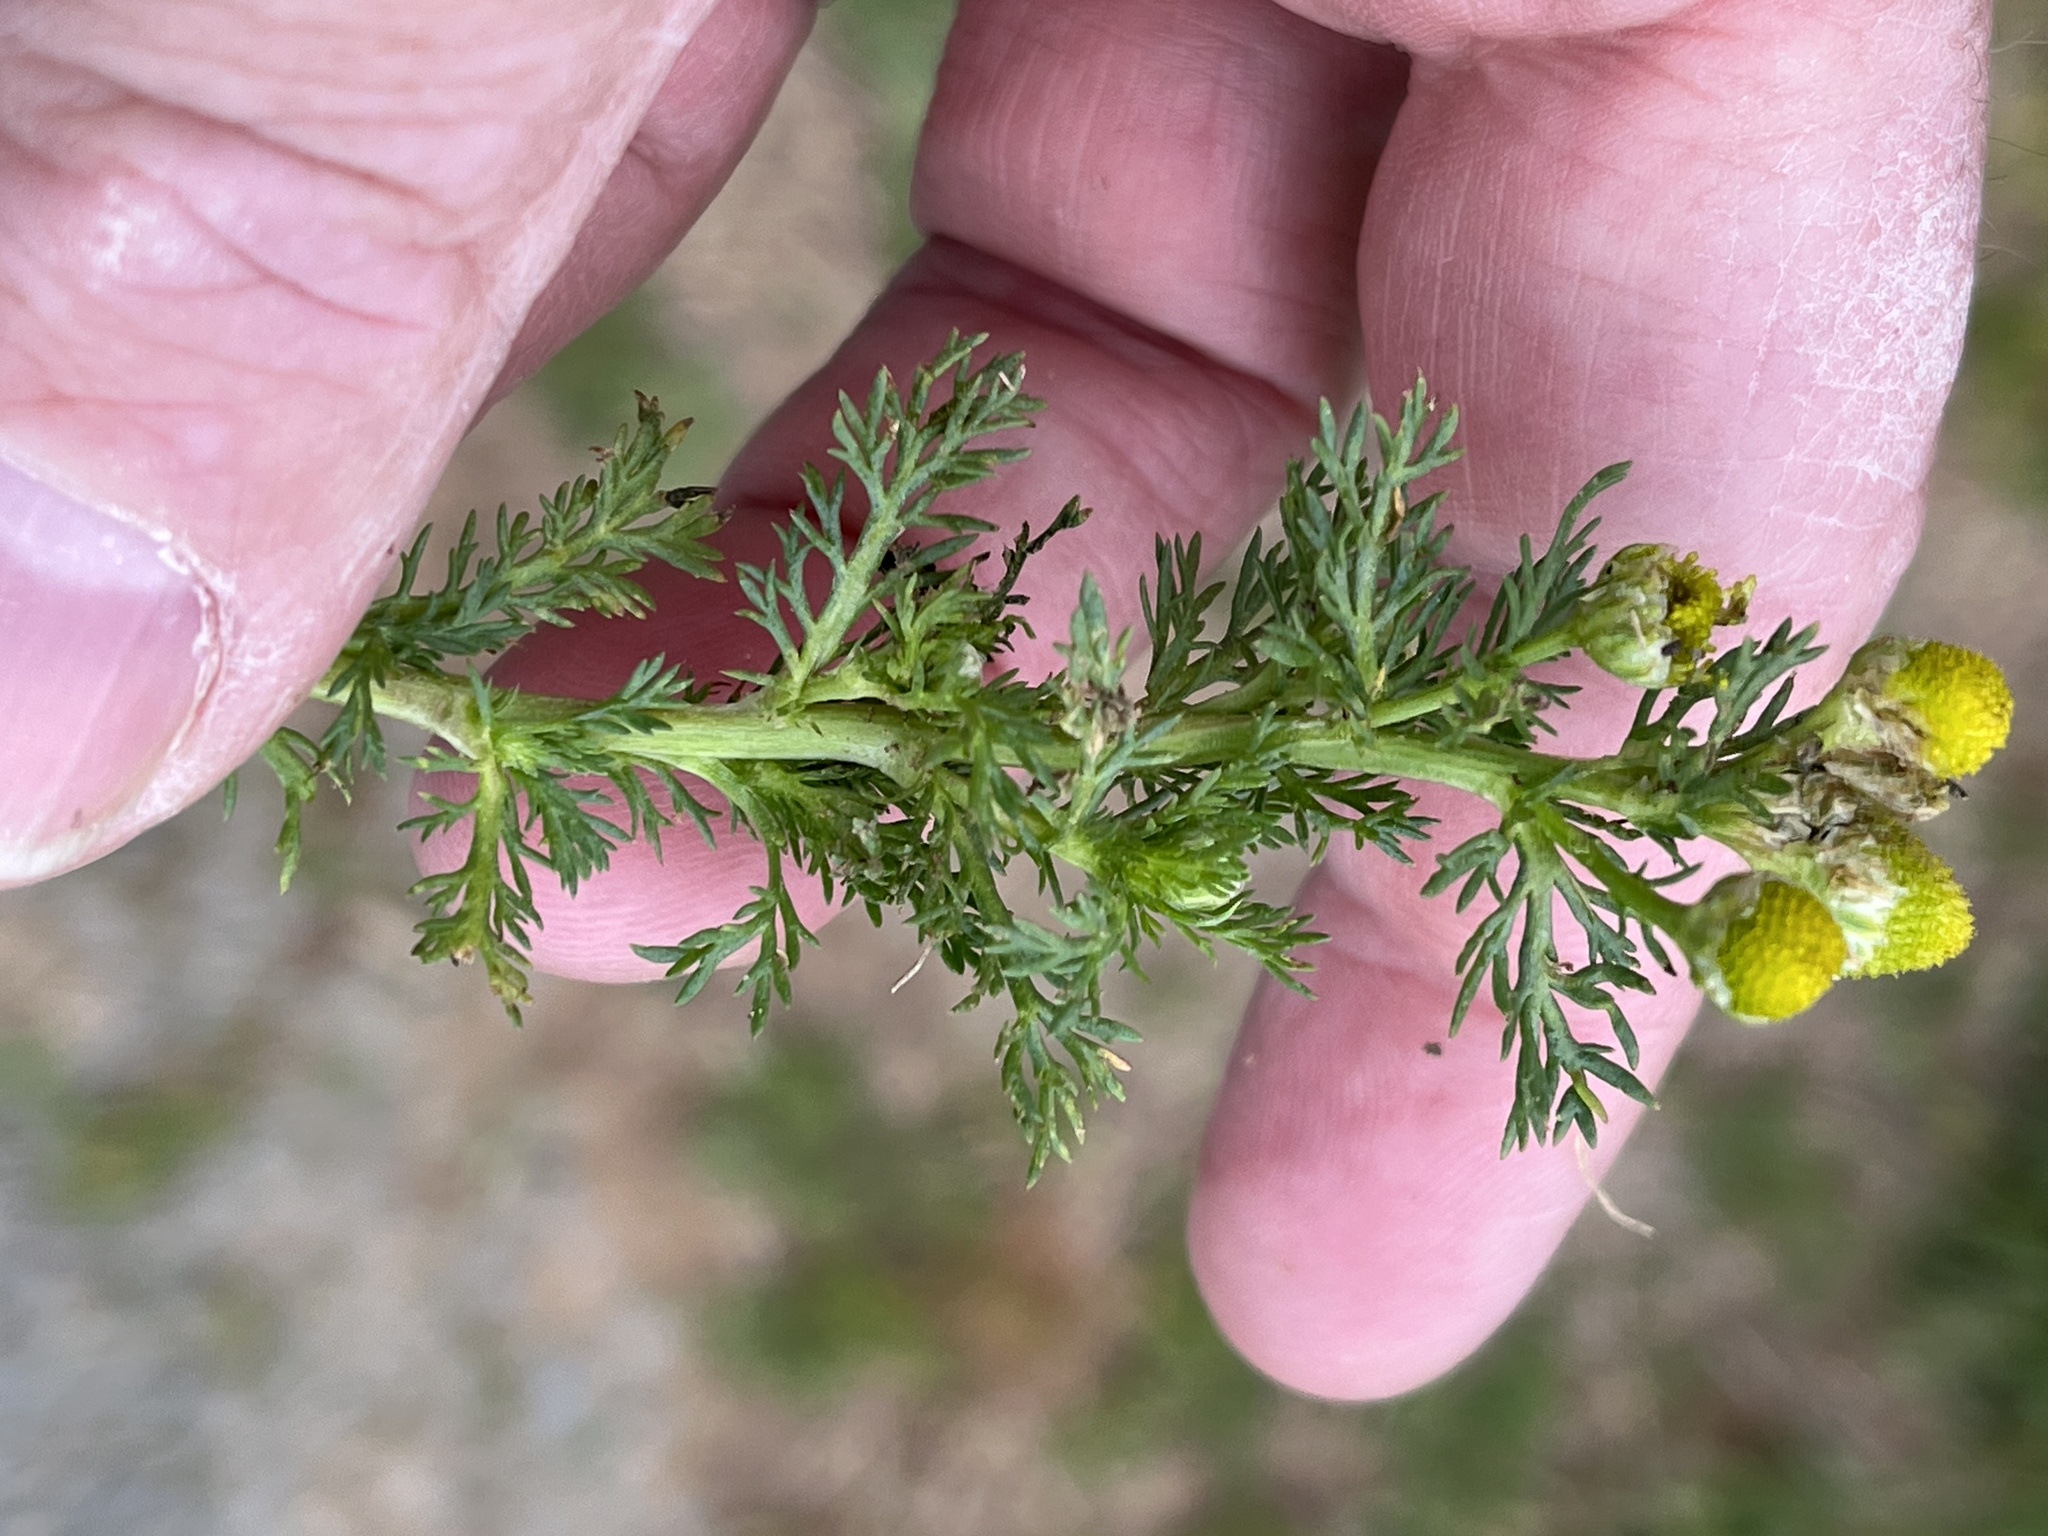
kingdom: Plantae
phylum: Tracheophyta
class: Magnoliopsida
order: Asterales
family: Asteraceae
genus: Matricaria
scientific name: Matricaria discoidea
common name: Disc mayweed
